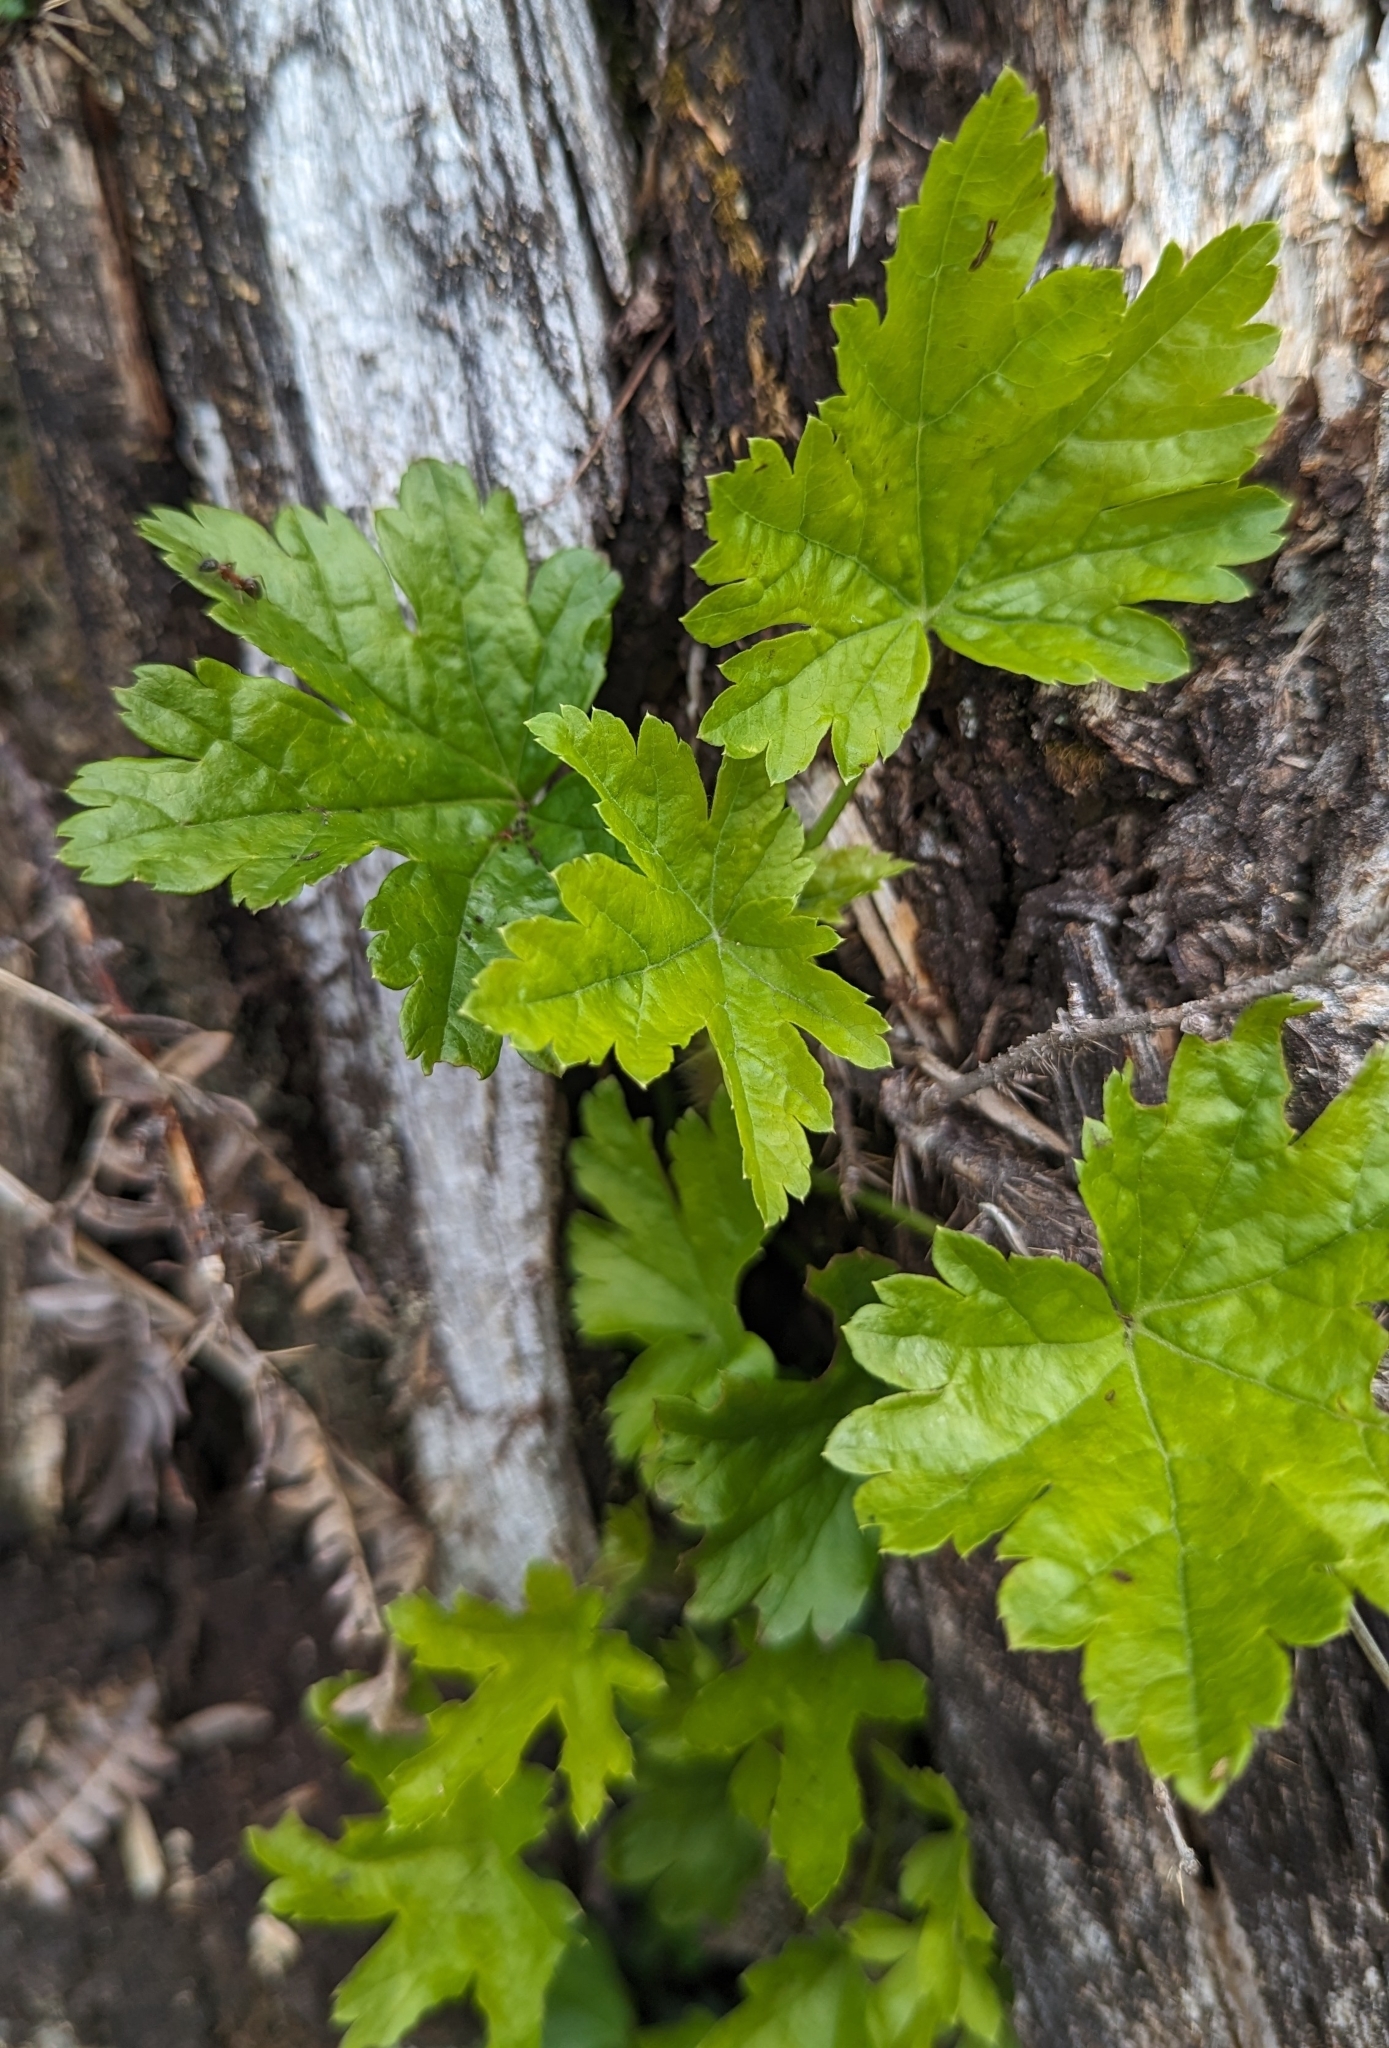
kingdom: Plantae
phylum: Tracheophyta
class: Magnoliopsida
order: Saxifragales
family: Grossulariaceae
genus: Ribes
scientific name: Ribes lacustre
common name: Black gooseberry
